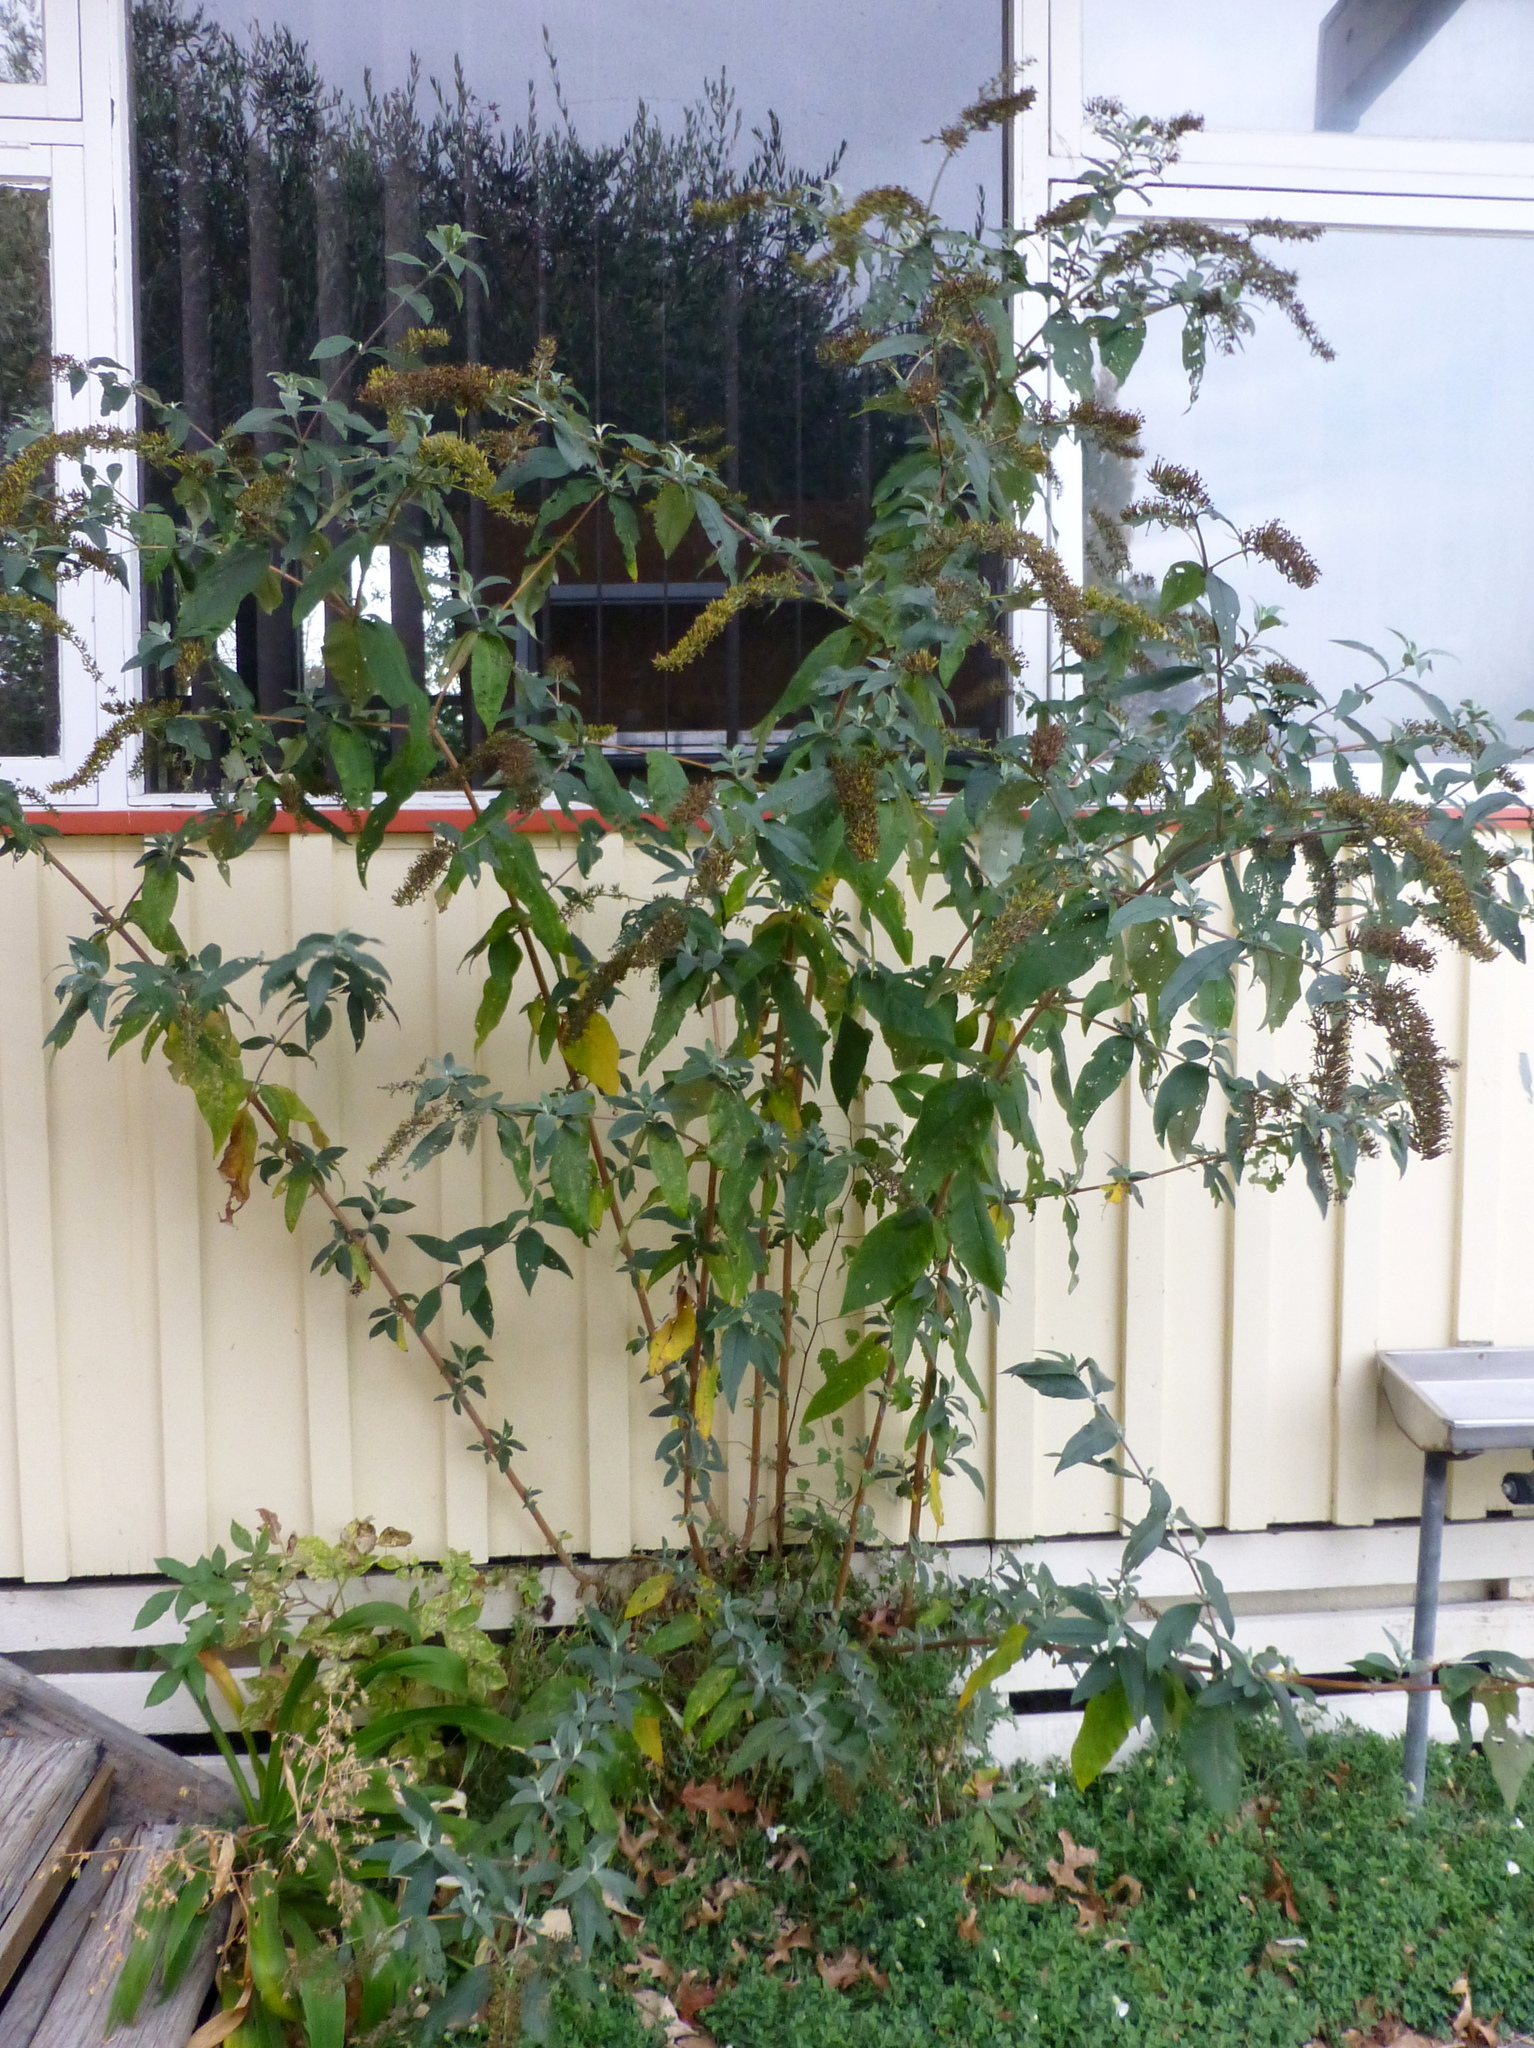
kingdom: Plantae
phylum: Tracheophyta
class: Magnoliopsida
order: Lamiales
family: Scrophulariaceae
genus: Buddleja
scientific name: Buddleja davidii
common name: Butterfly-bush
